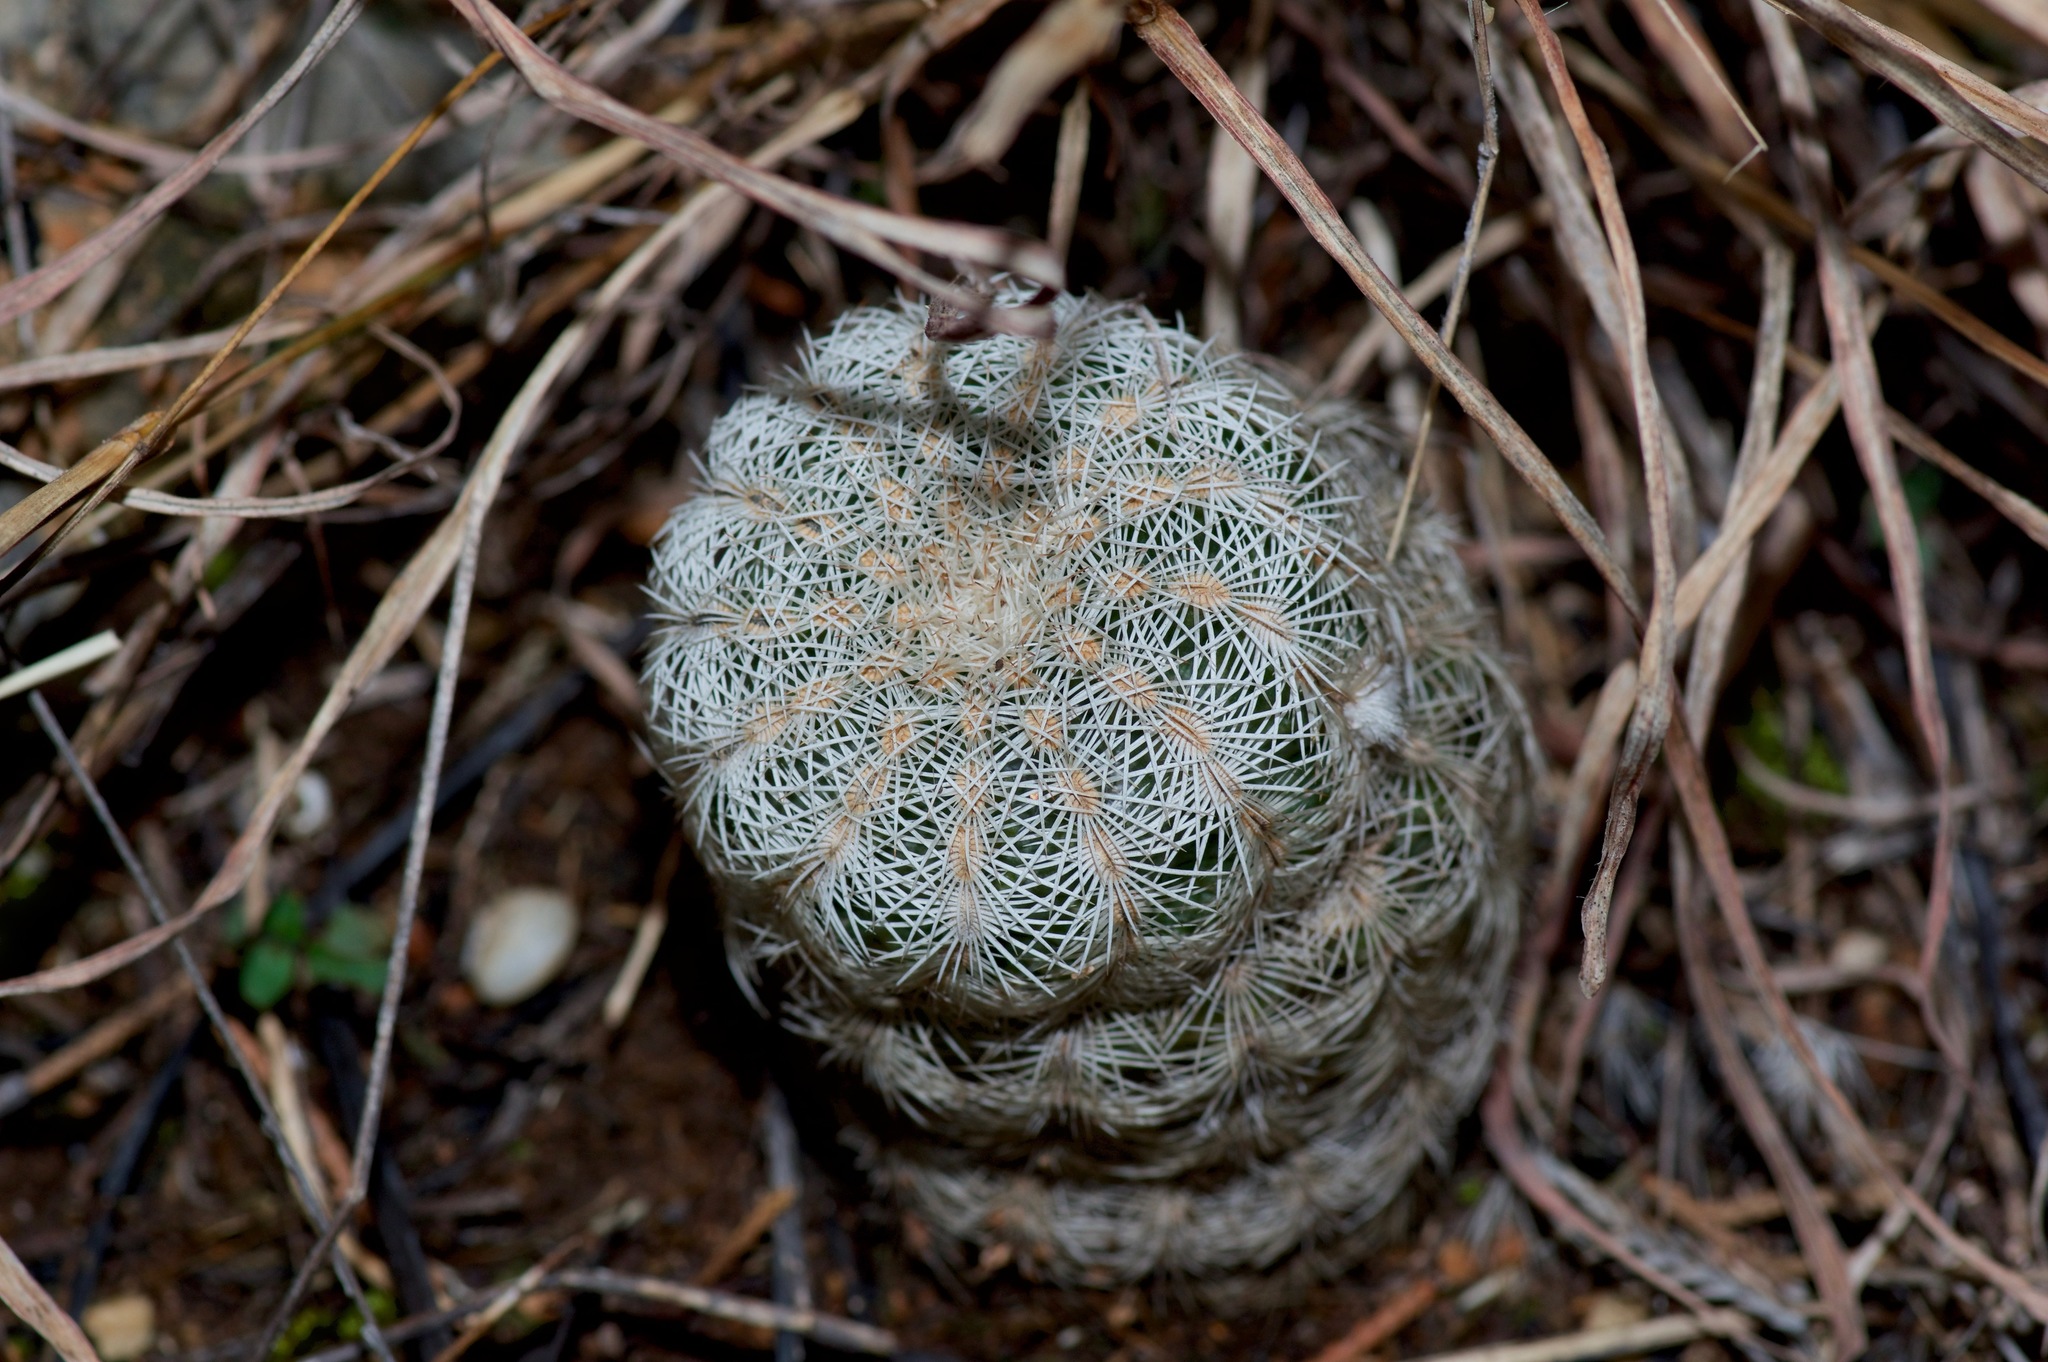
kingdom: Plantae
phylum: Tracheophyta
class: Magnoliopsida
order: Caryophyllales
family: Cactaceae
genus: Echinocereus
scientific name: Echinocereus reichenbachii
